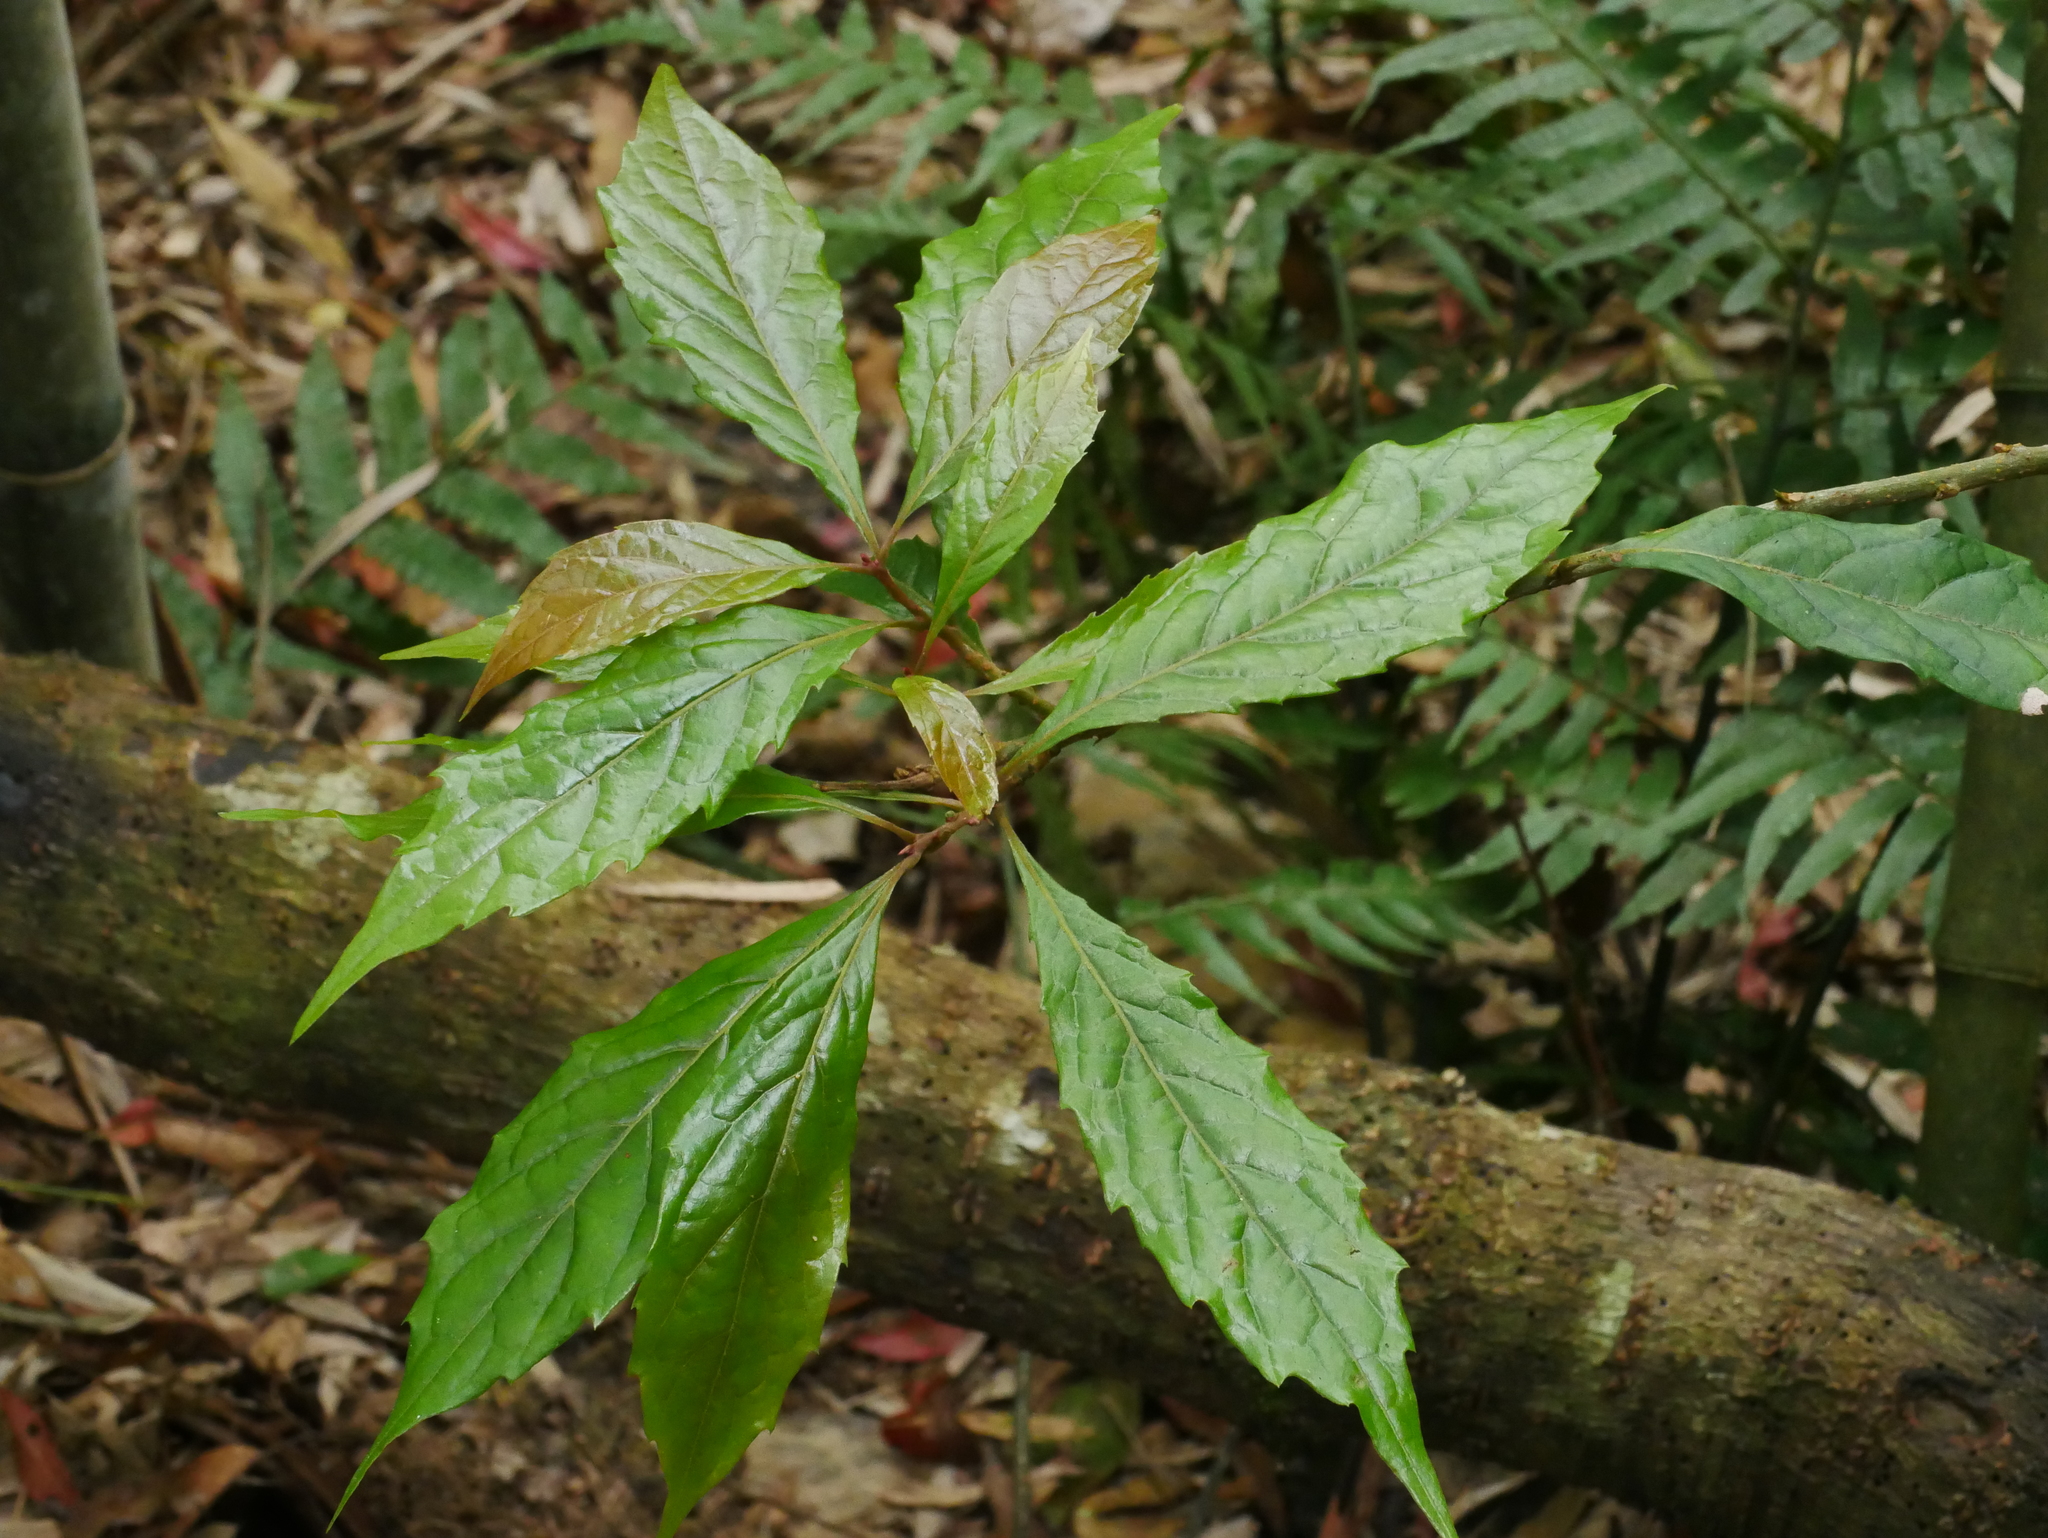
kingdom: Plantae
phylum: Tracheophyta
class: Magnoliopsida
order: Proteales
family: Sabiaceae
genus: Meliosma
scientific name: Meliosma callicarpifolia
